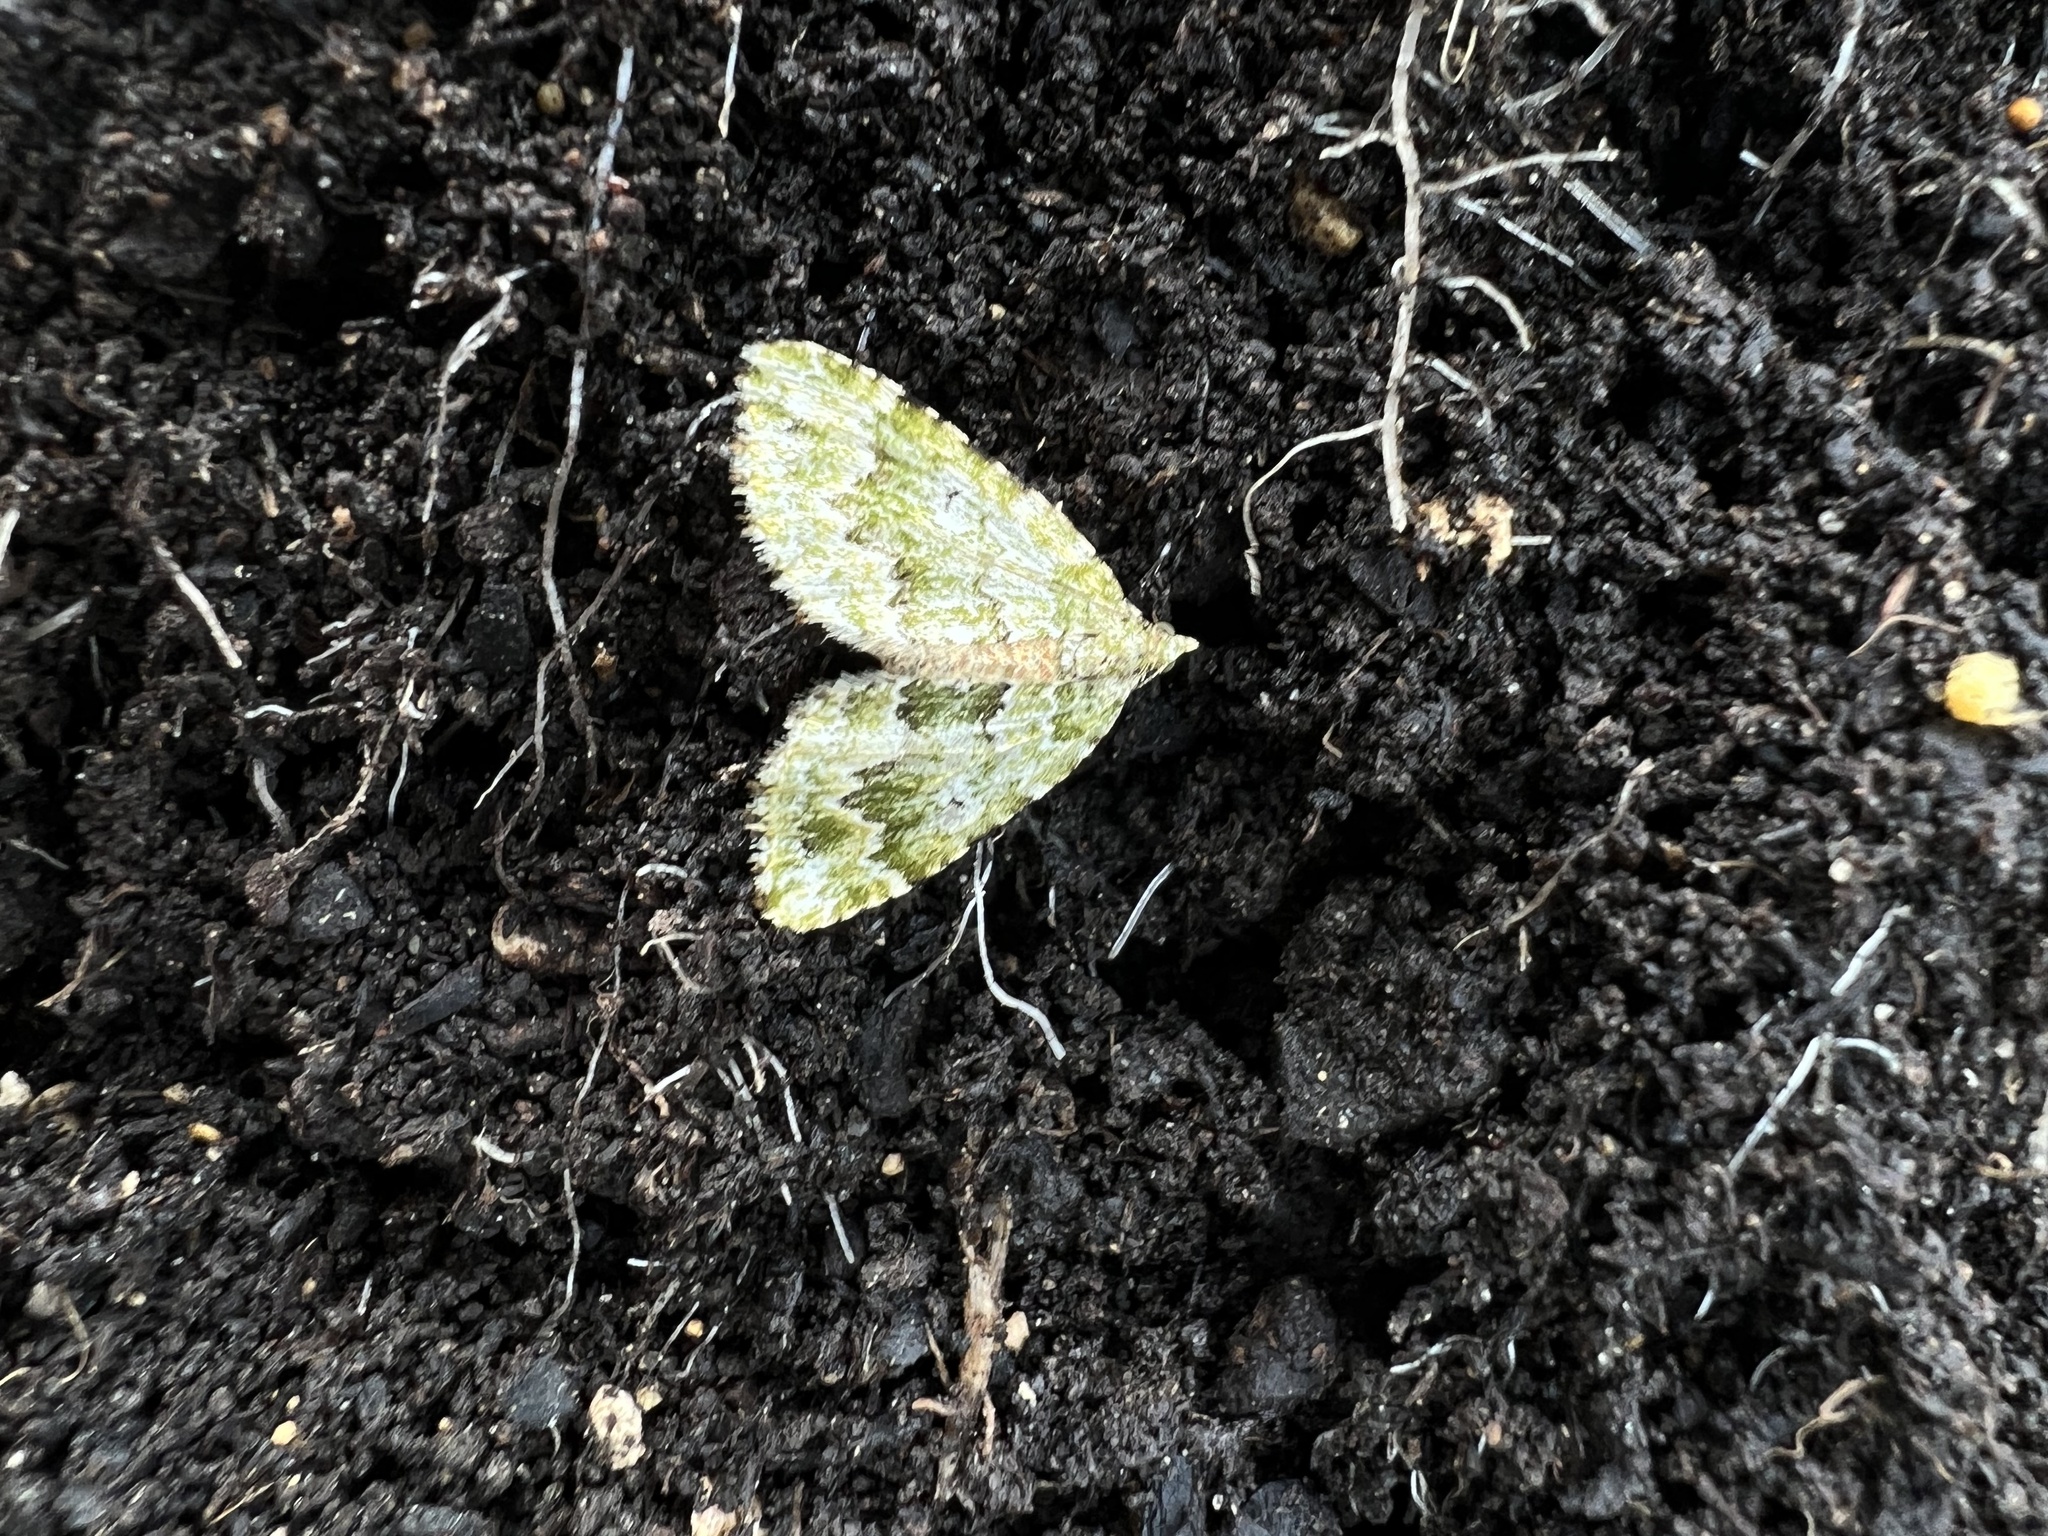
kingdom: Animalia
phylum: Arthropoda
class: Insecta
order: Lepidoptera
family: Geometridae
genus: Asaphodes
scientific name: Asaphodes beata
